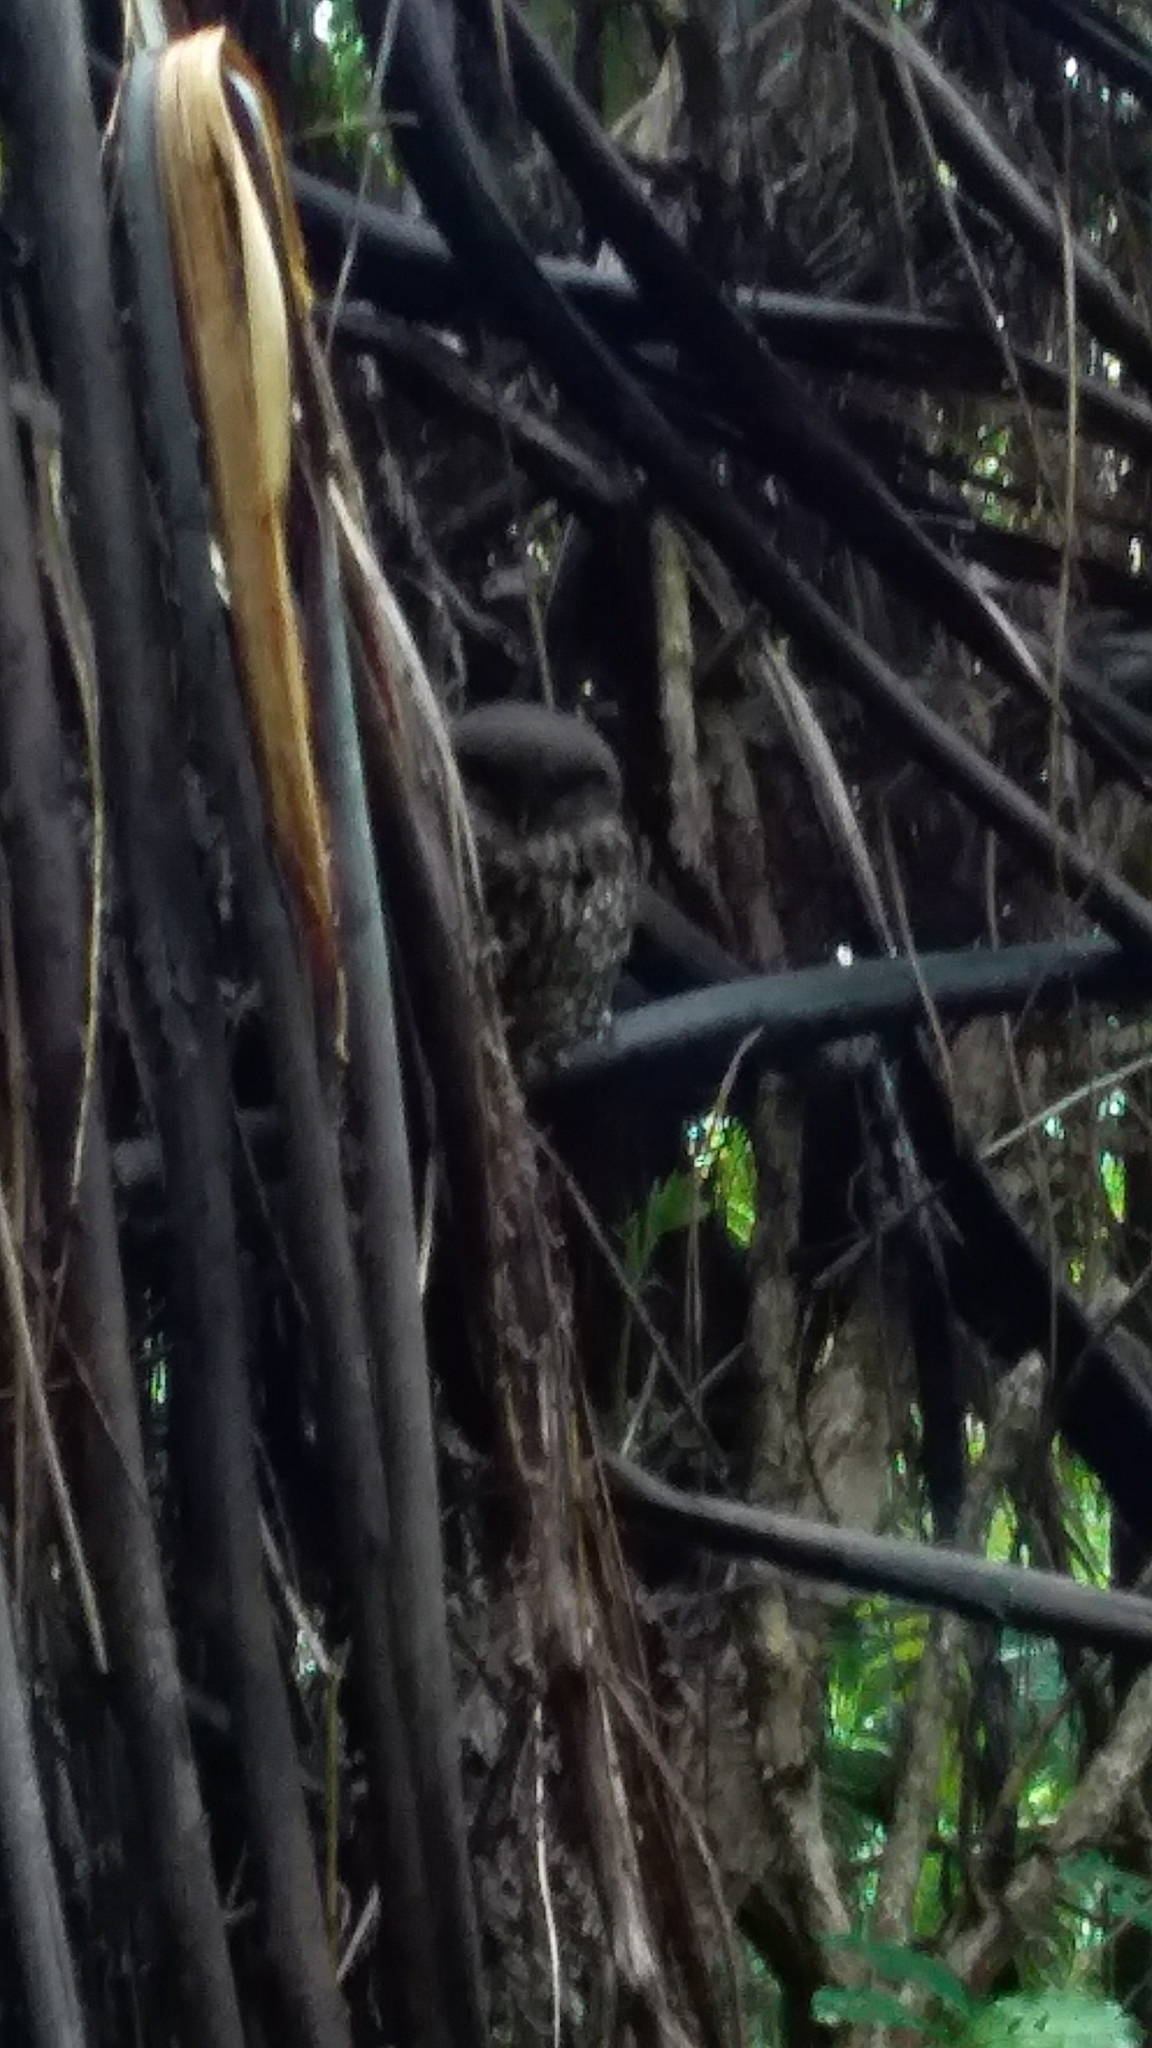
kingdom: Animalia
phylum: Chordata
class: Aves
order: Strigiformes
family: Strigidae
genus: Ninox
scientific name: Ninox novaeseelandiae
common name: Morepork
